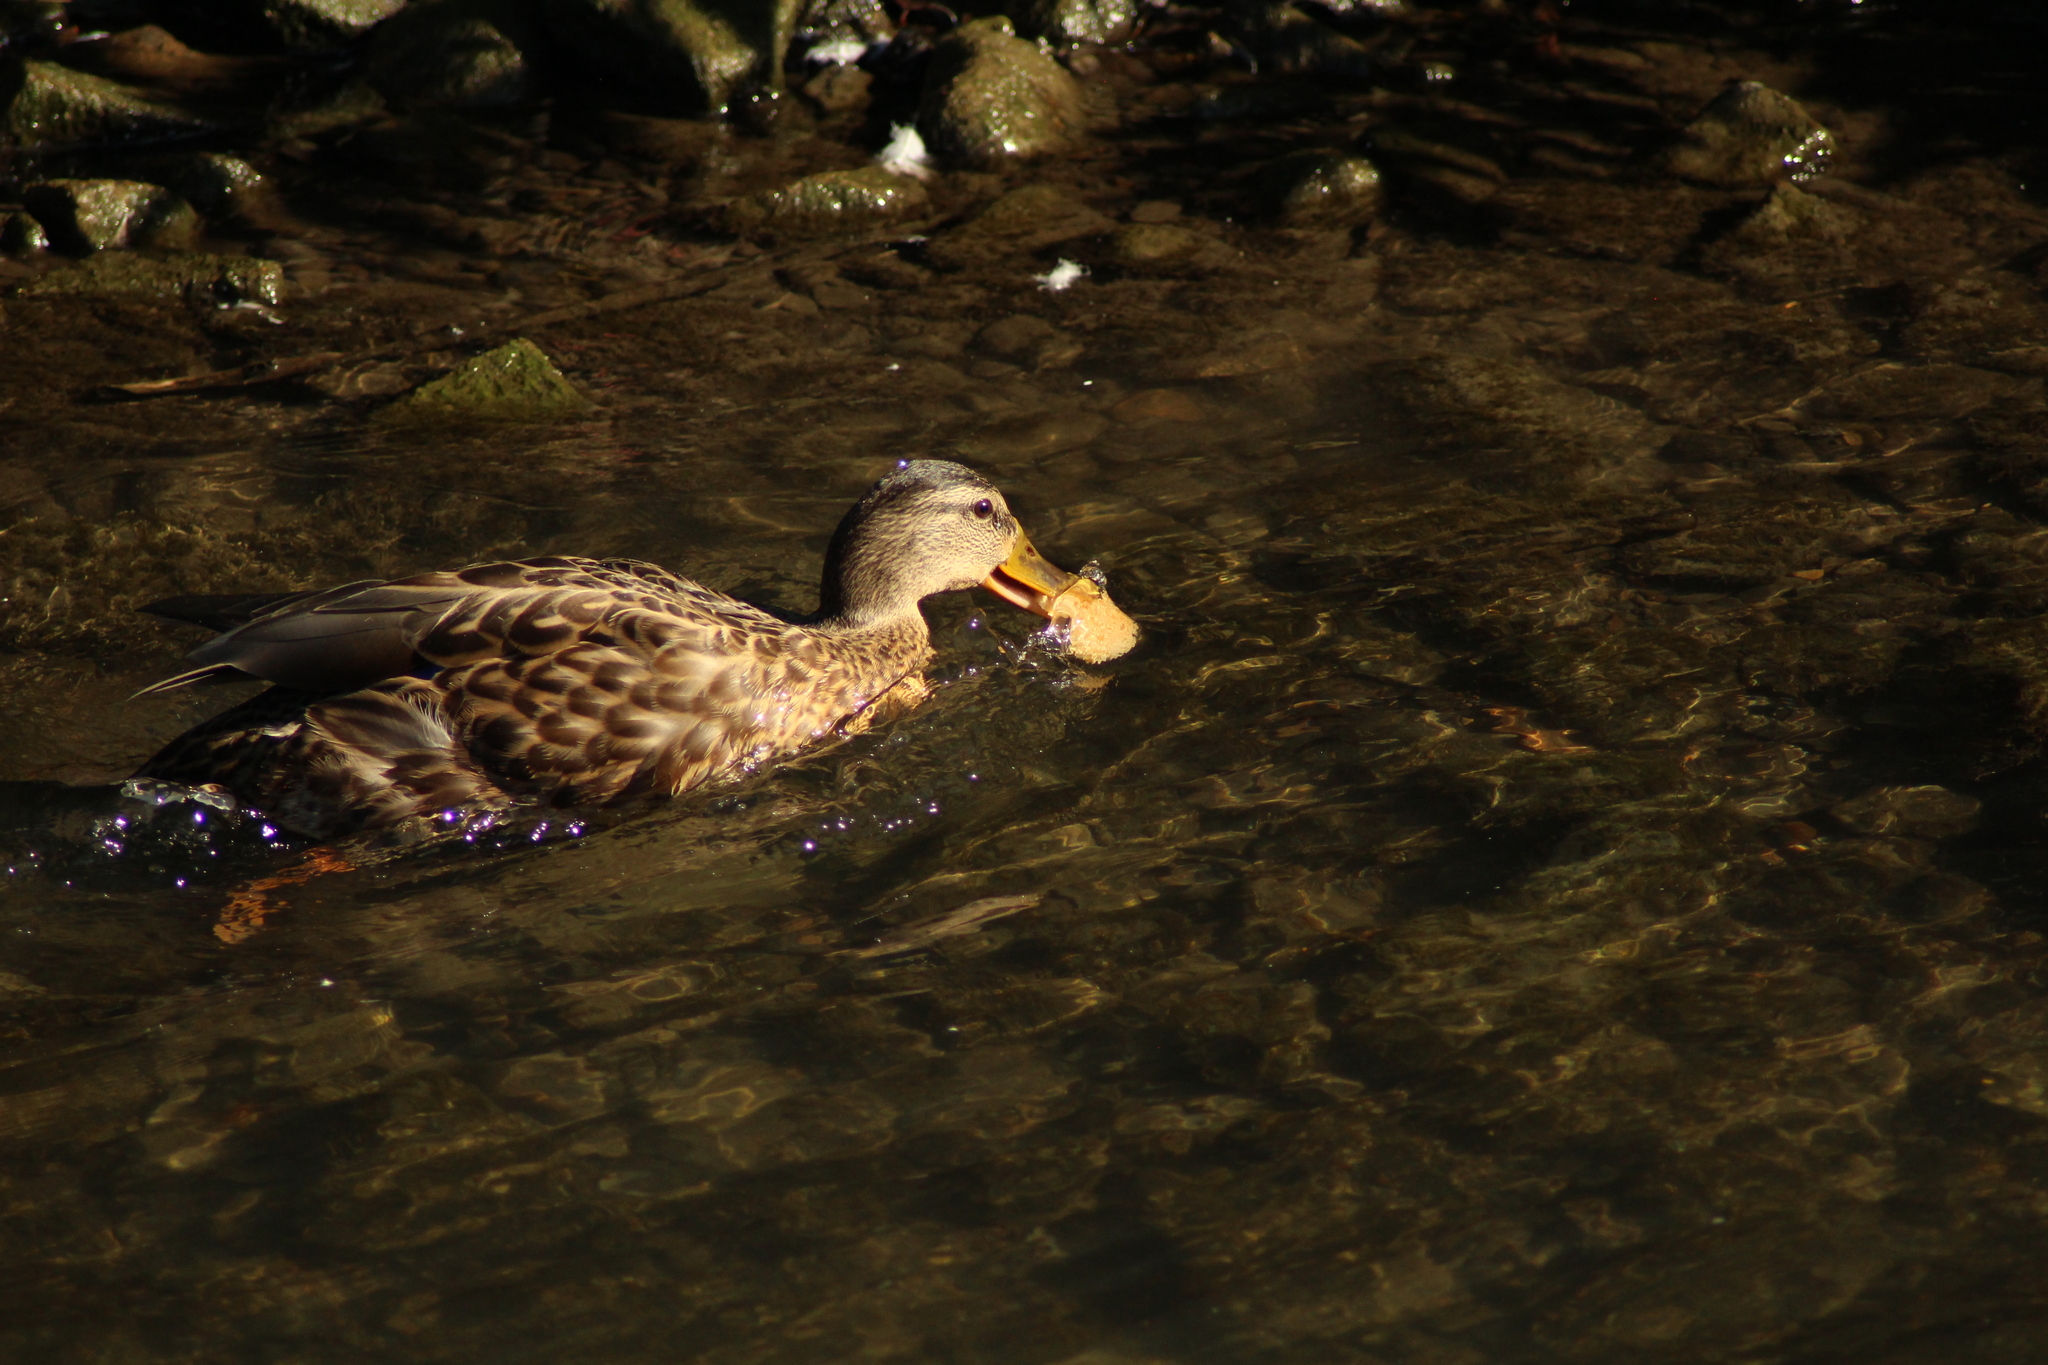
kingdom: Animalia
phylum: Chordata
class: Aves
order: Anseriformes
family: Anatidae
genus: Anas
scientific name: Anas platyrhynchos
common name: Mallard
